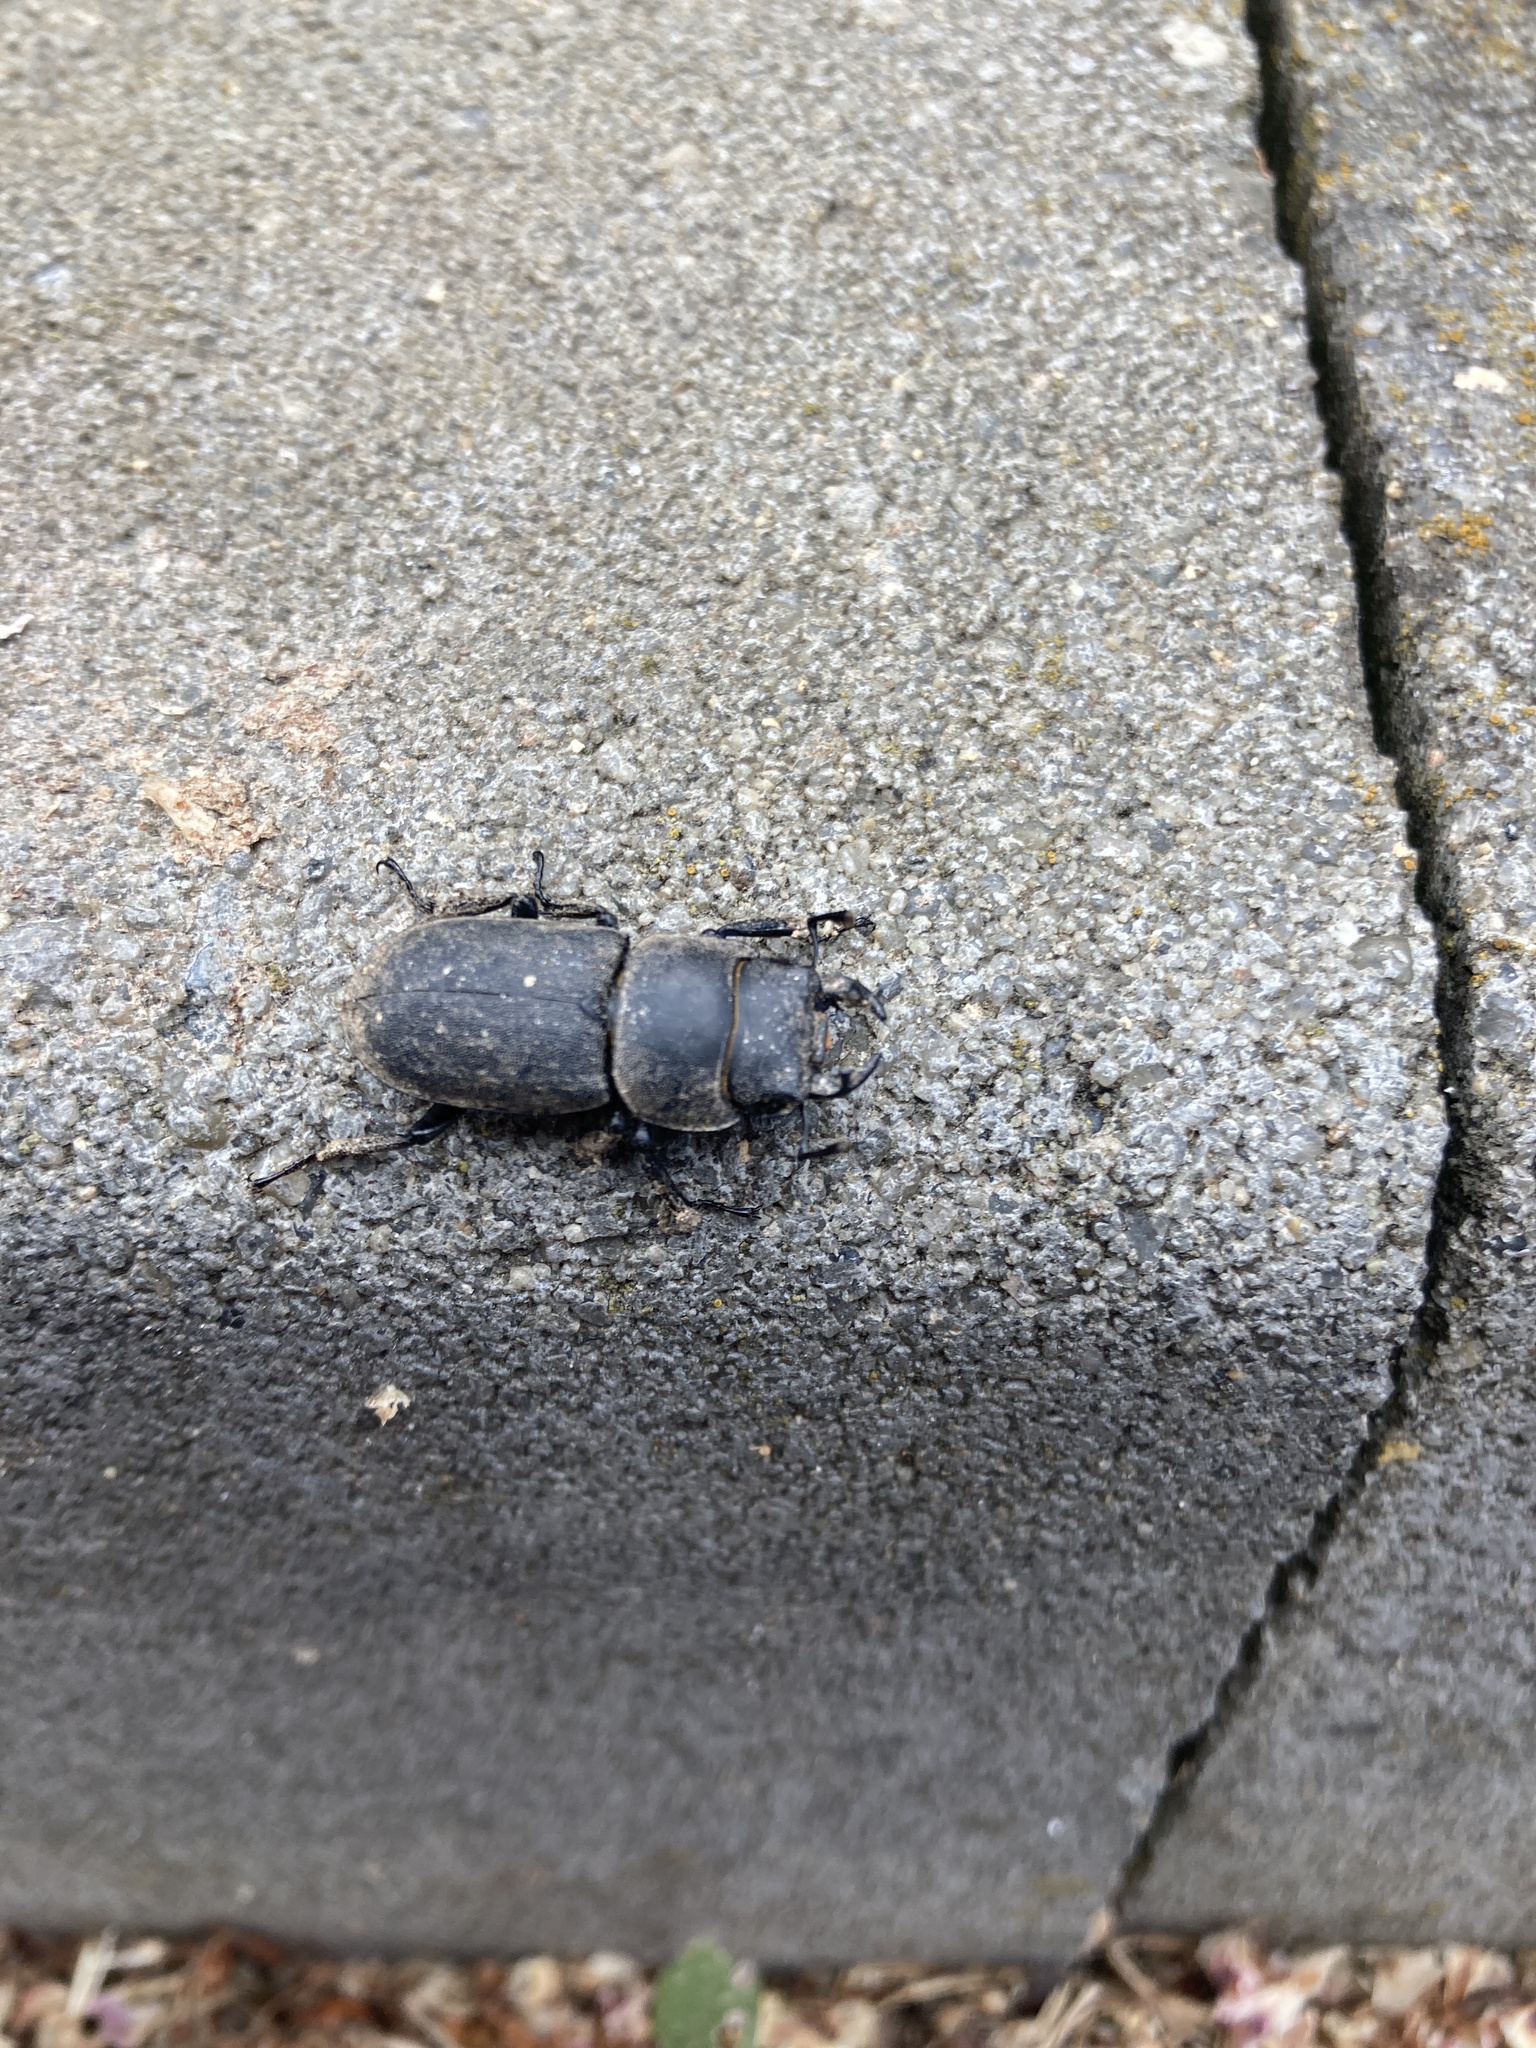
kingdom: Animalia
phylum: Arthropoda
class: Insecta
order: Coleoptera
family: Lucanidae
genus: Dorcus
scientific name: Dorcus parallelipipedus
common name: Lesser stag beetle
